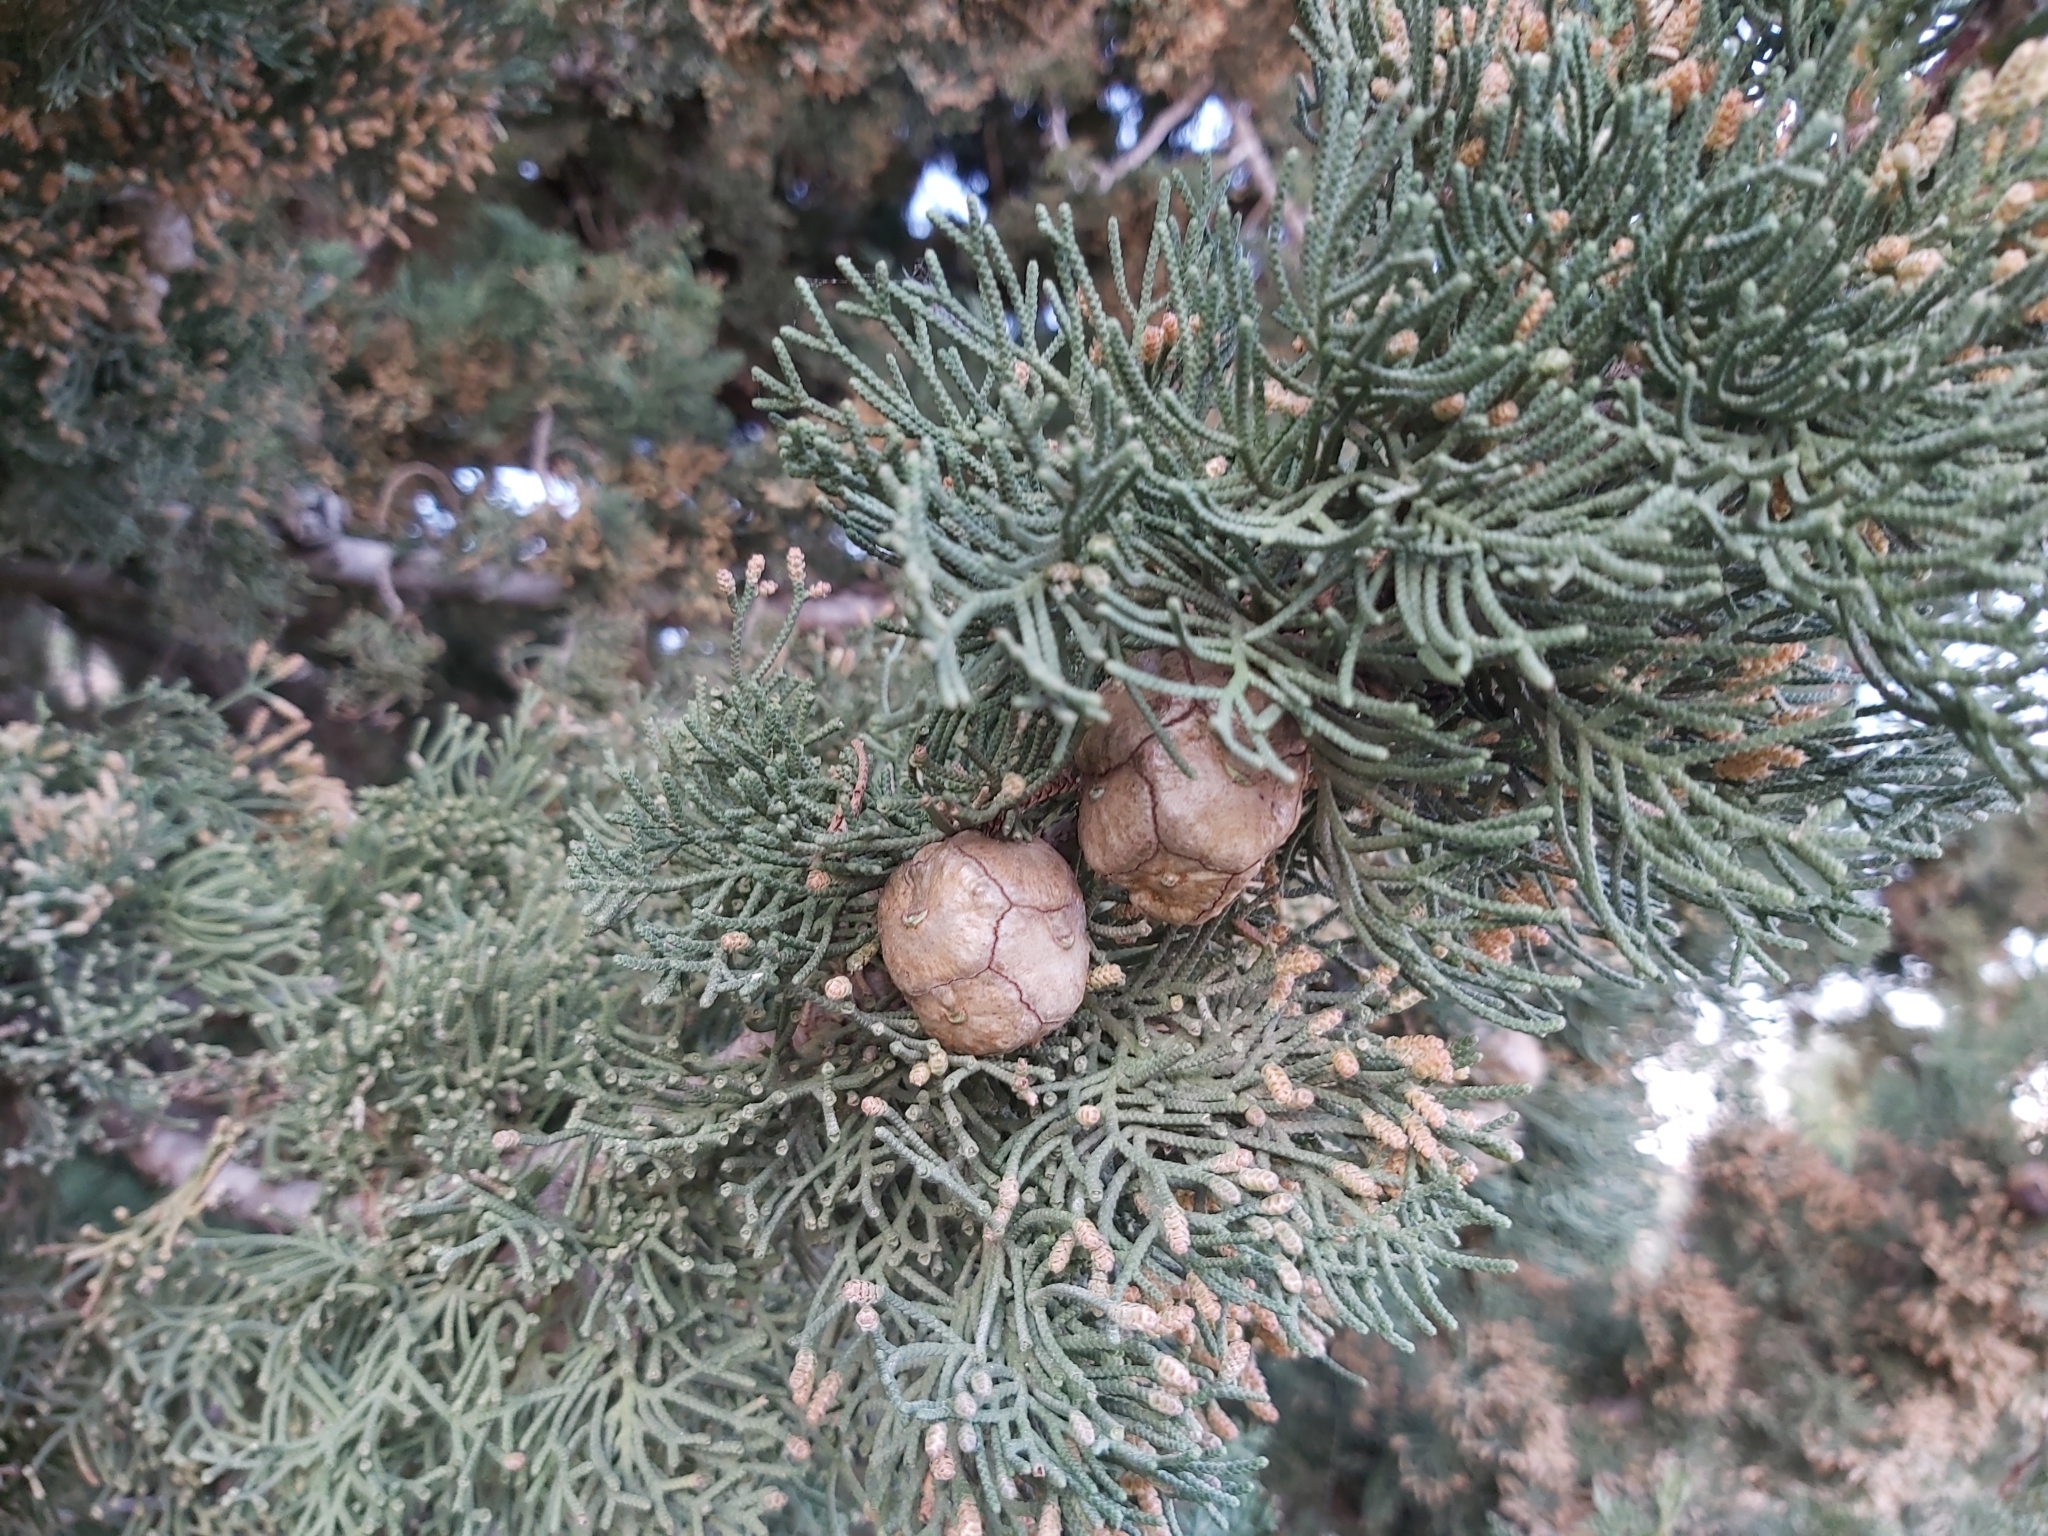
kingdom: Plantae
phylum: Tracheophyta
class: Pinopsida
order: Pinales
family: Cupressaceae
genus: Cupressus
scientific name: Cupressus sempervirens
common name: Italian cypress
